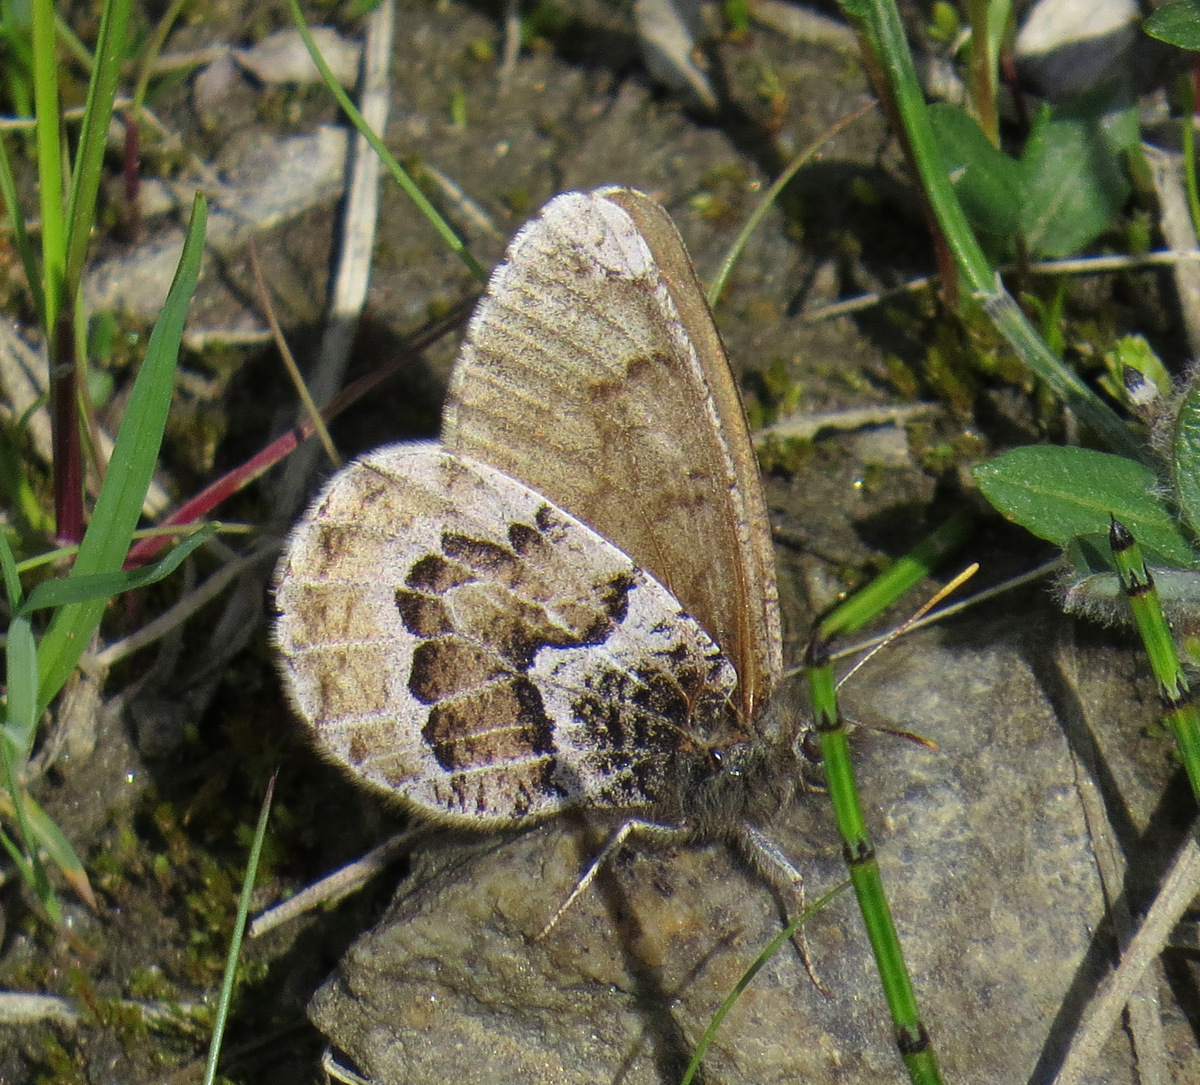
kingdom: Animalia
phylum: Arthropoda
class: Insecta
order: Lepidoptera
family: Nymphalidae
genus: Oeneis
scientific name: Oeneis bore
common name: Arctic grayling
